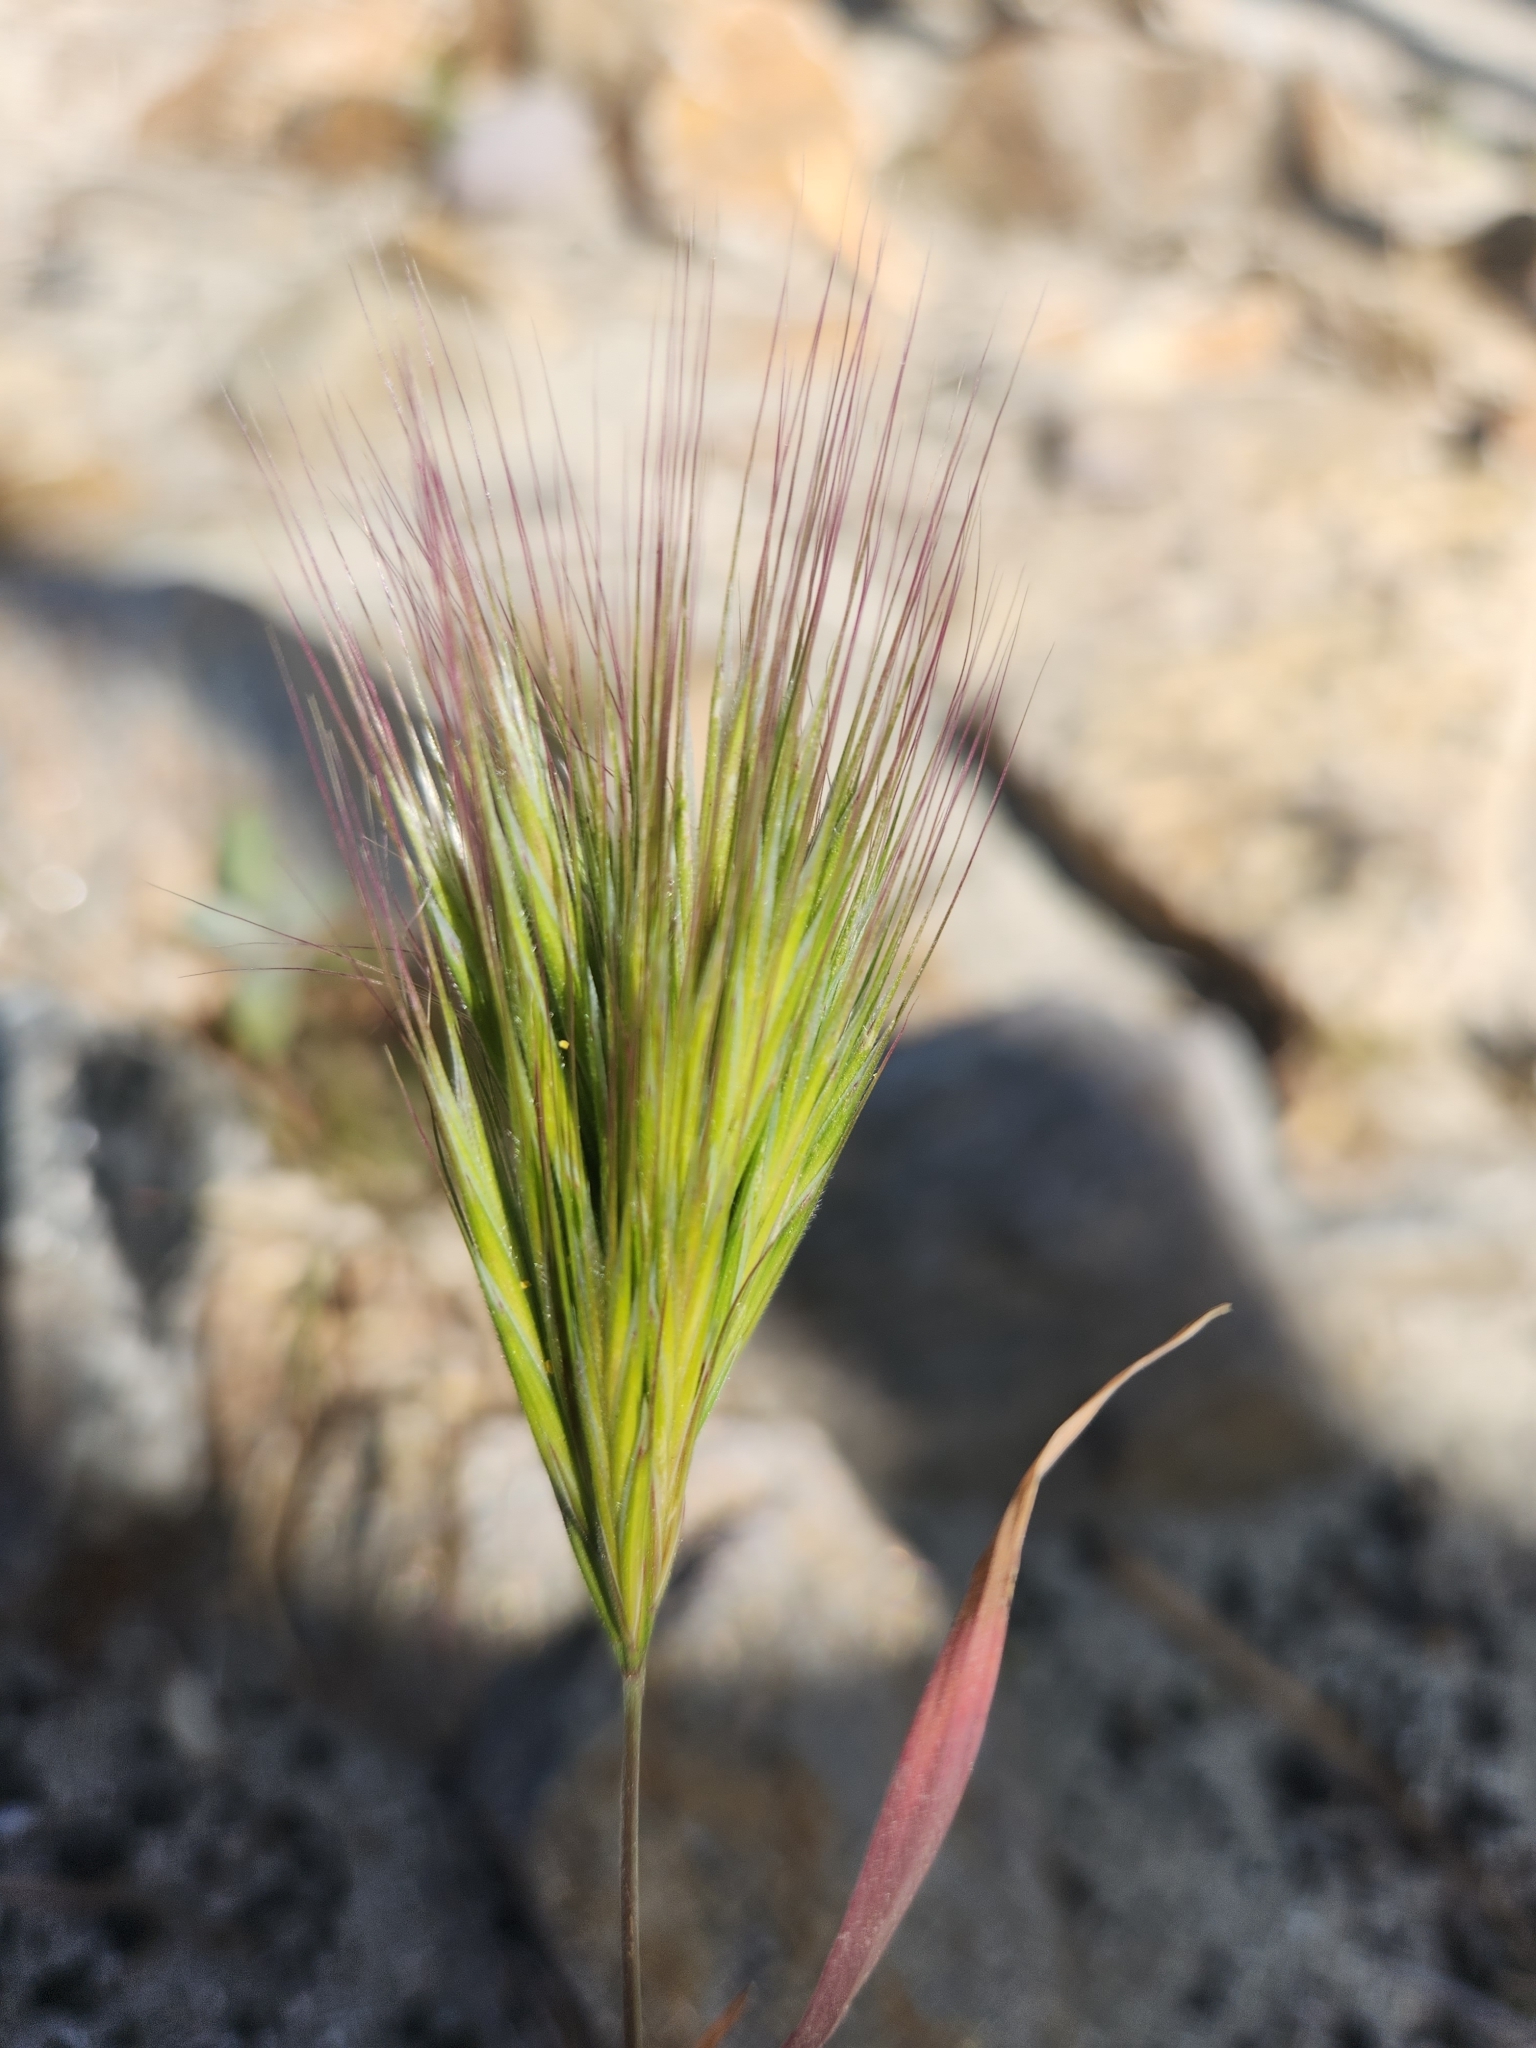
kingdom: Plantae
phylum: Tracheophyta
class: Liliopsida
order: Poales
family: Poaceae
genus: Bromus
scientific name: Bromus rubens
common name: Red brome
